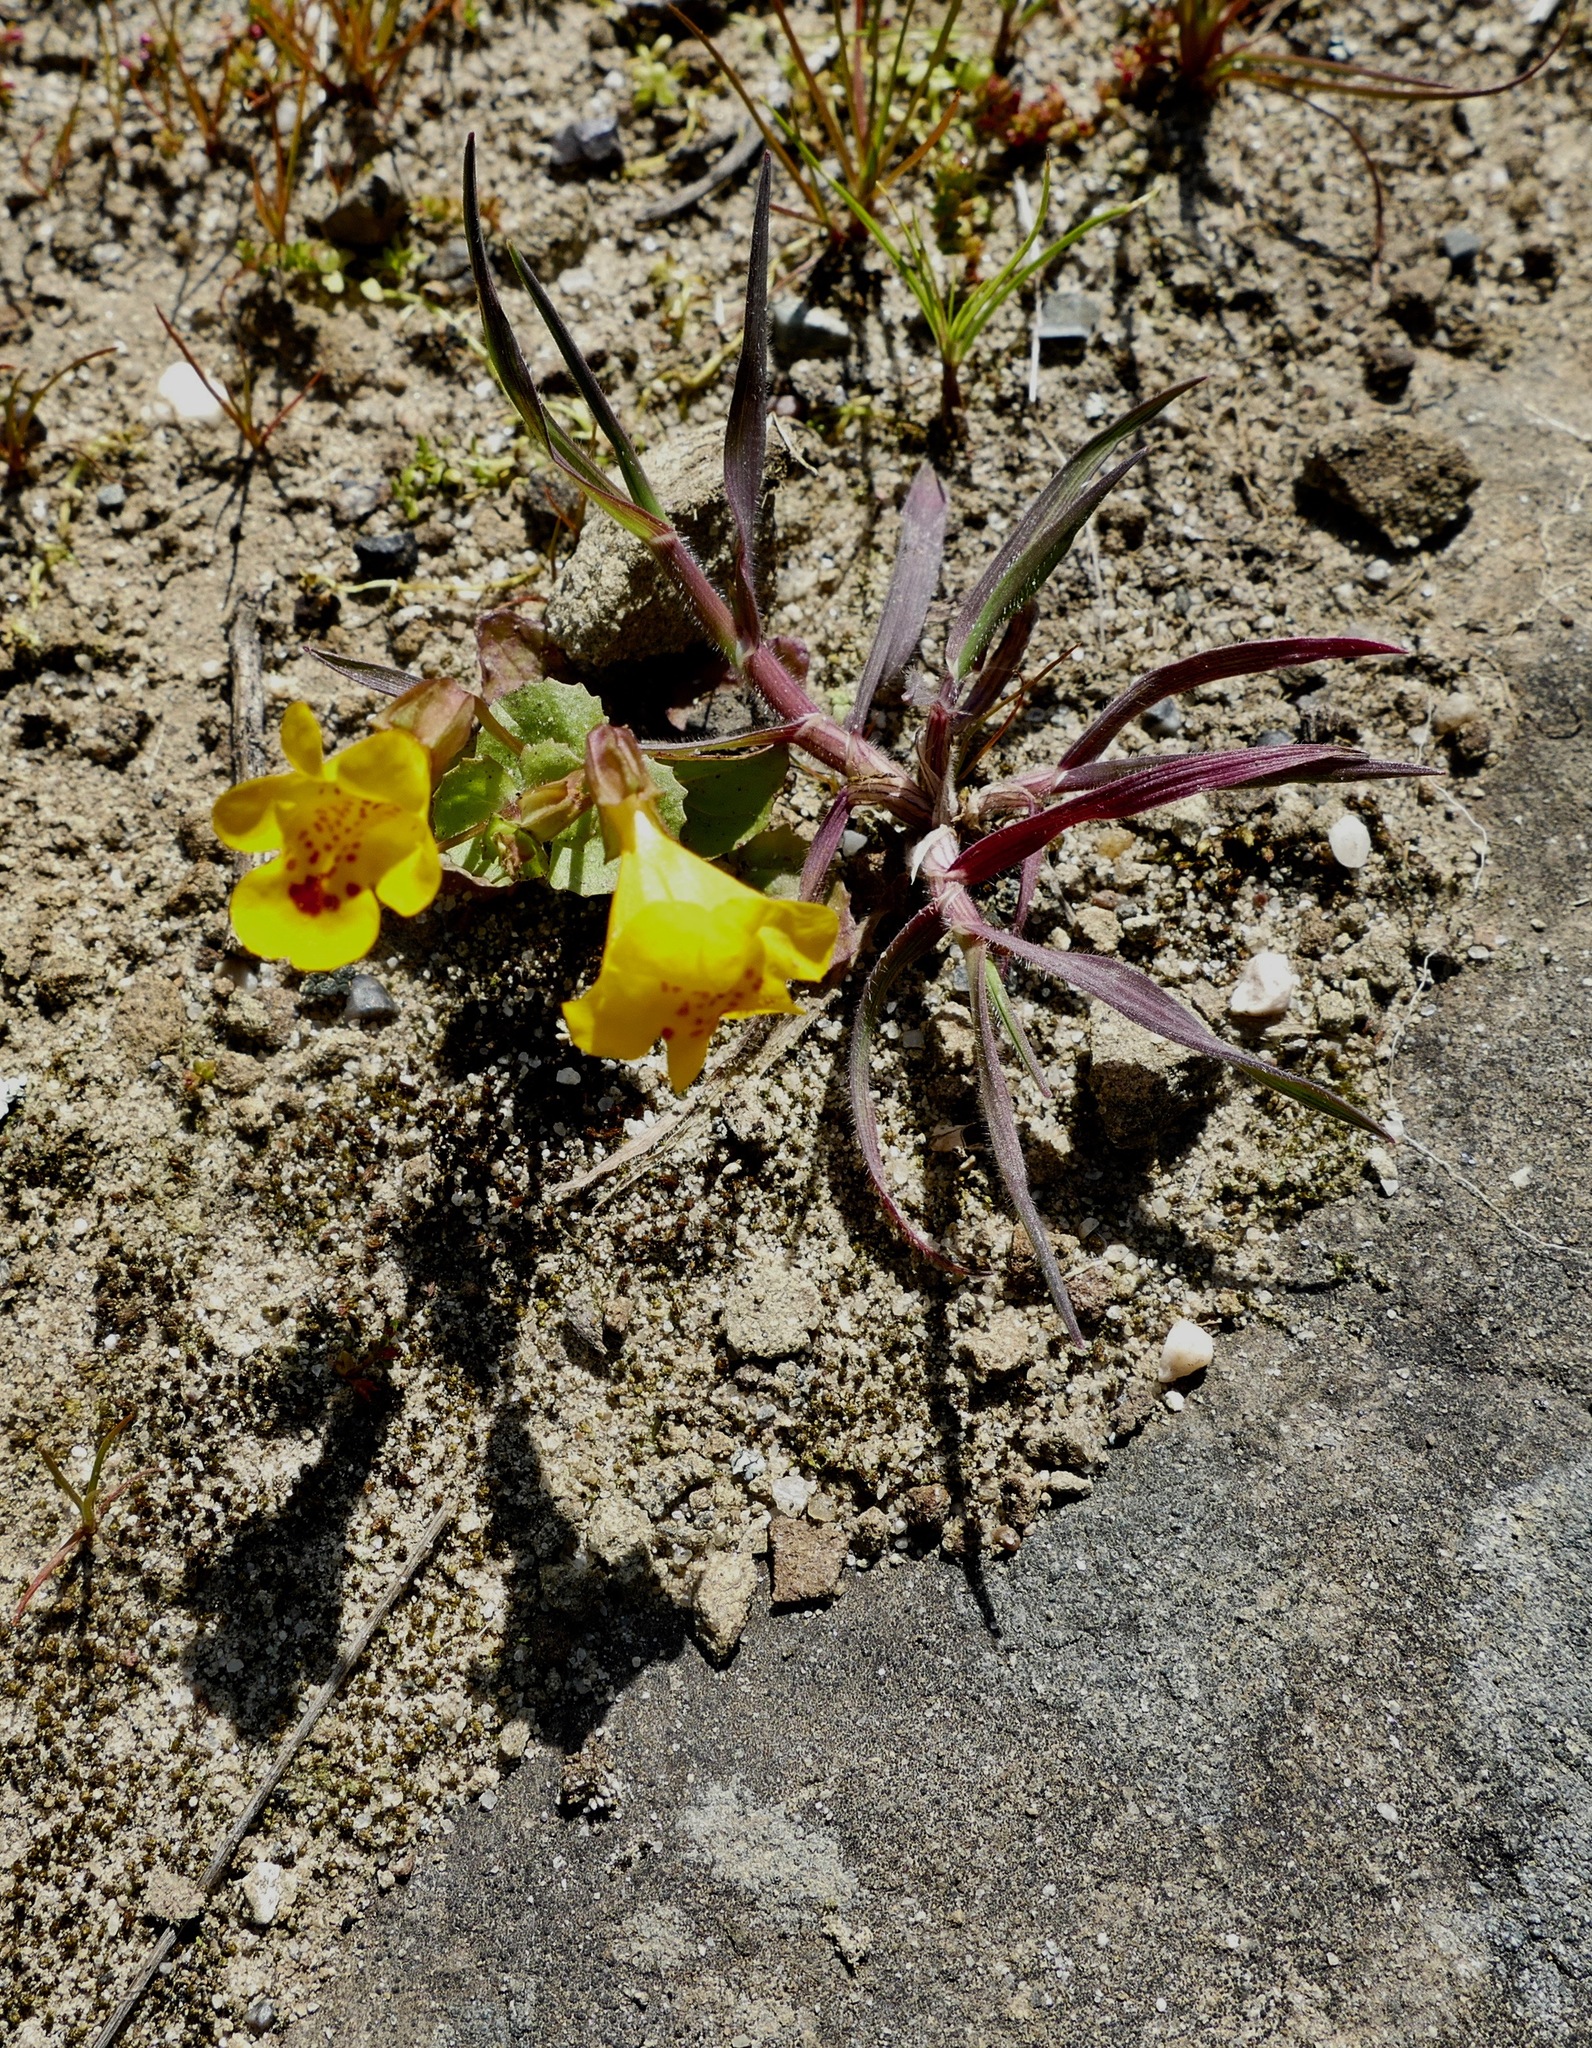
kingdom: Plantae
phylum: Tracheophyta
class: Magnoliopsida
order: Lamiales
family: Phrymaceae
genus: Erythranthe
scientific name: Erythranthe guttata
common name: Monkeyflower
